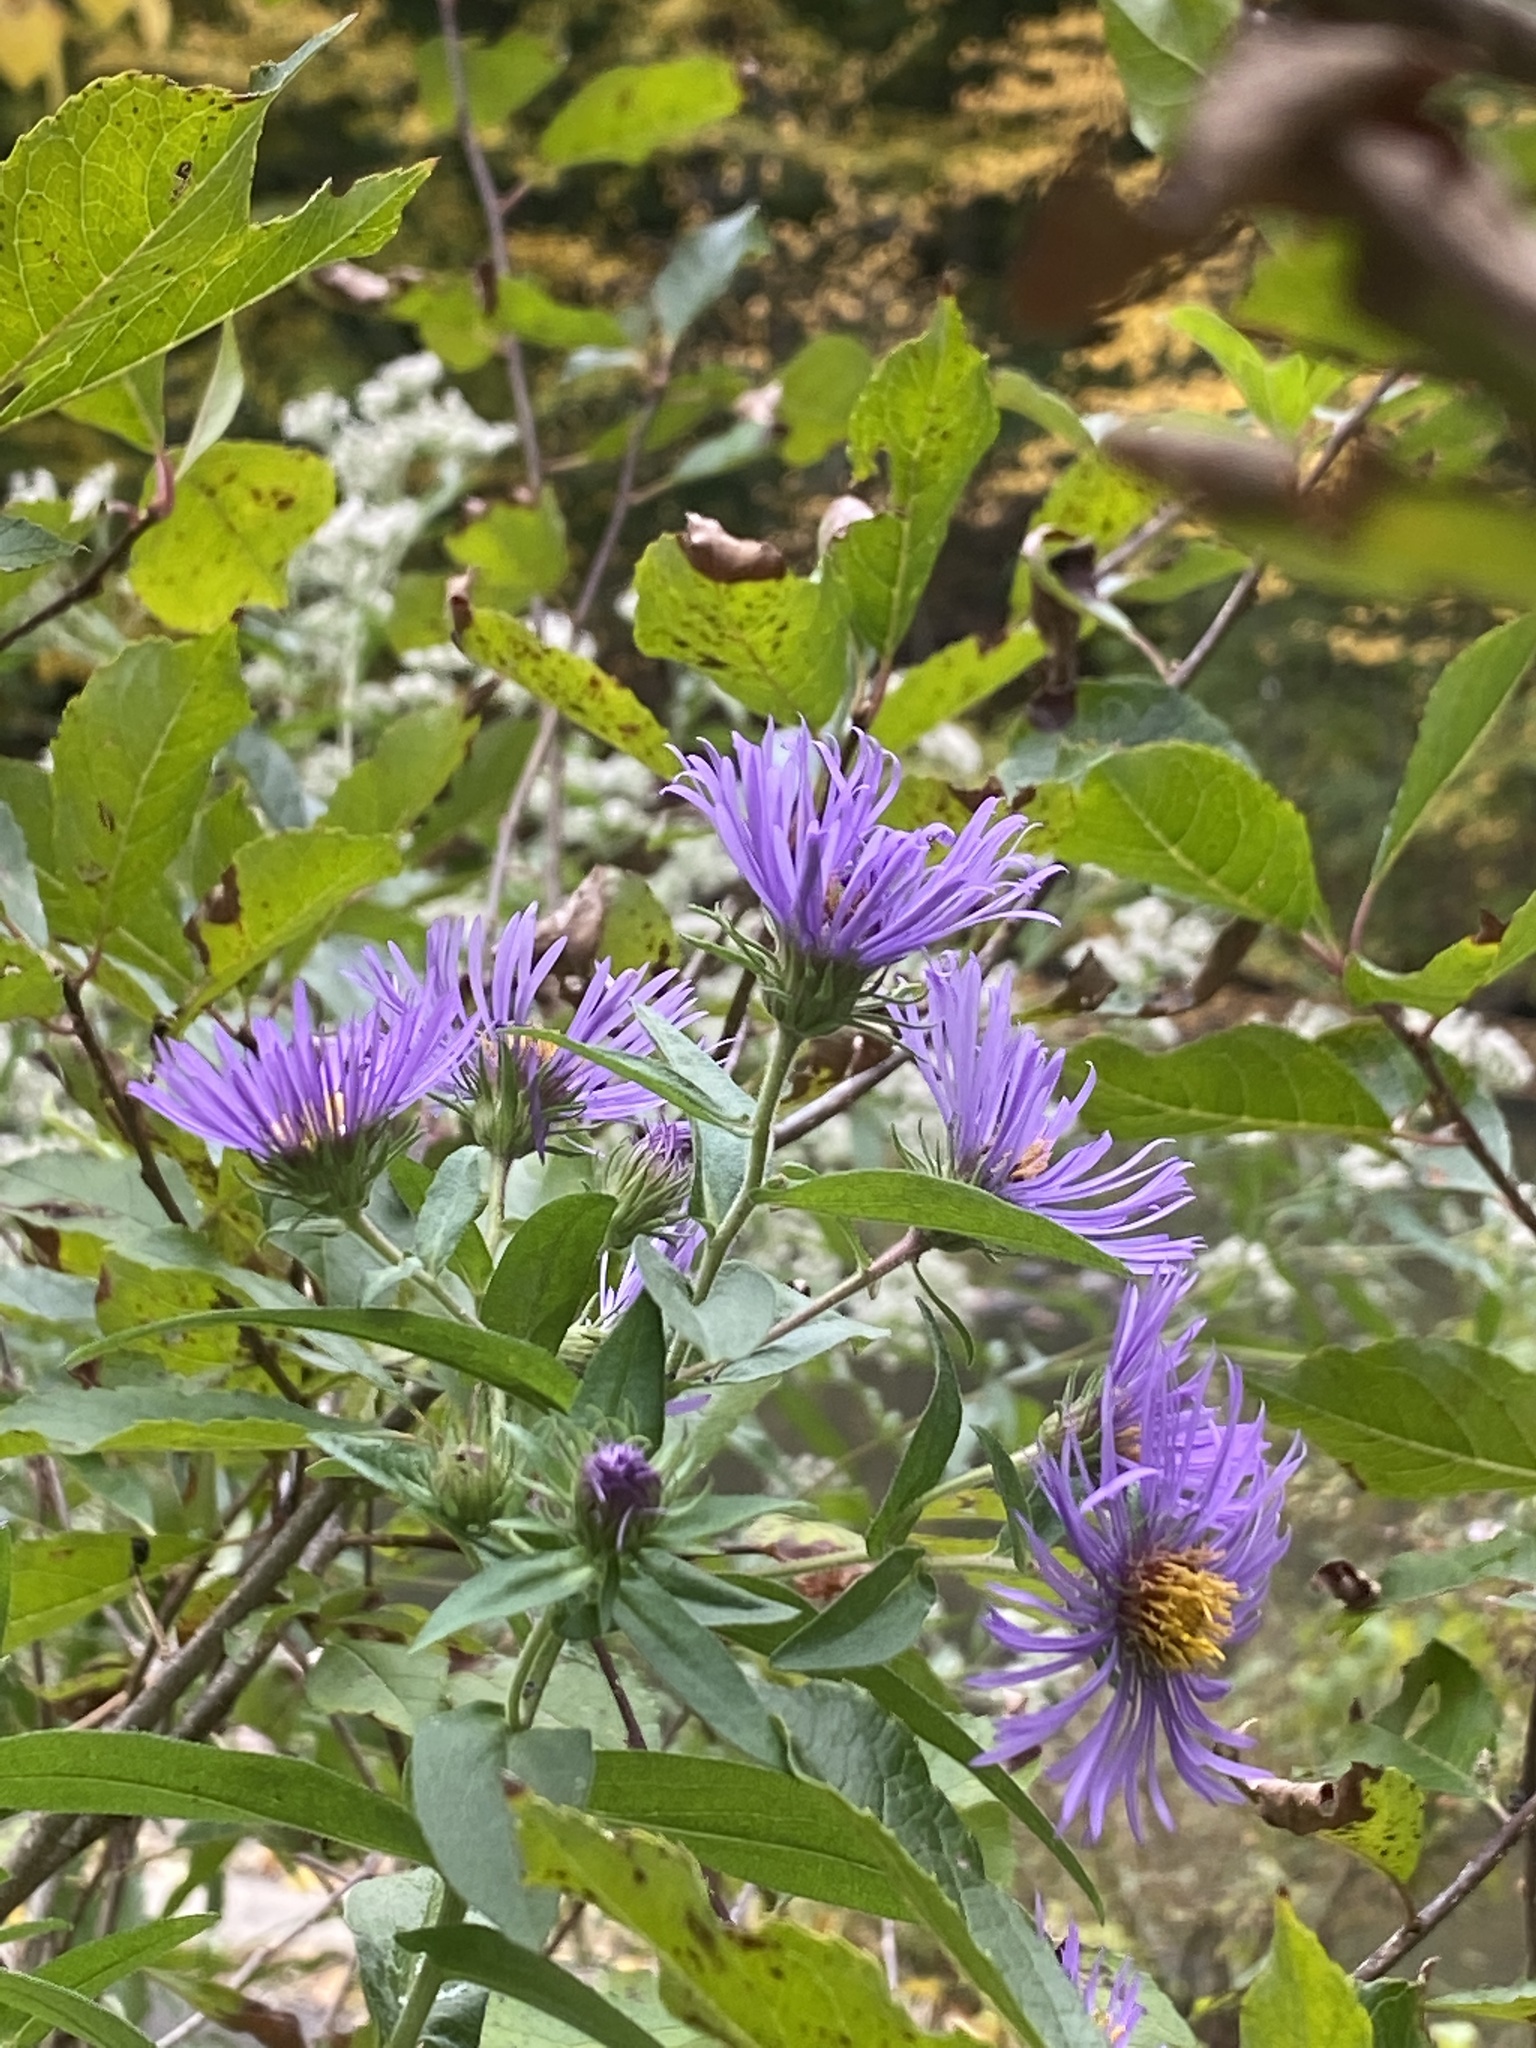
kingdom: Plantae
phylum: Tracheophyta
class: Magnoliopsida
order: Asterales
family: Asteraceae
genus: Symphyotrichum
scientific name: Symphyotrichum novae-angliae
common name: Michaelmas daisy
